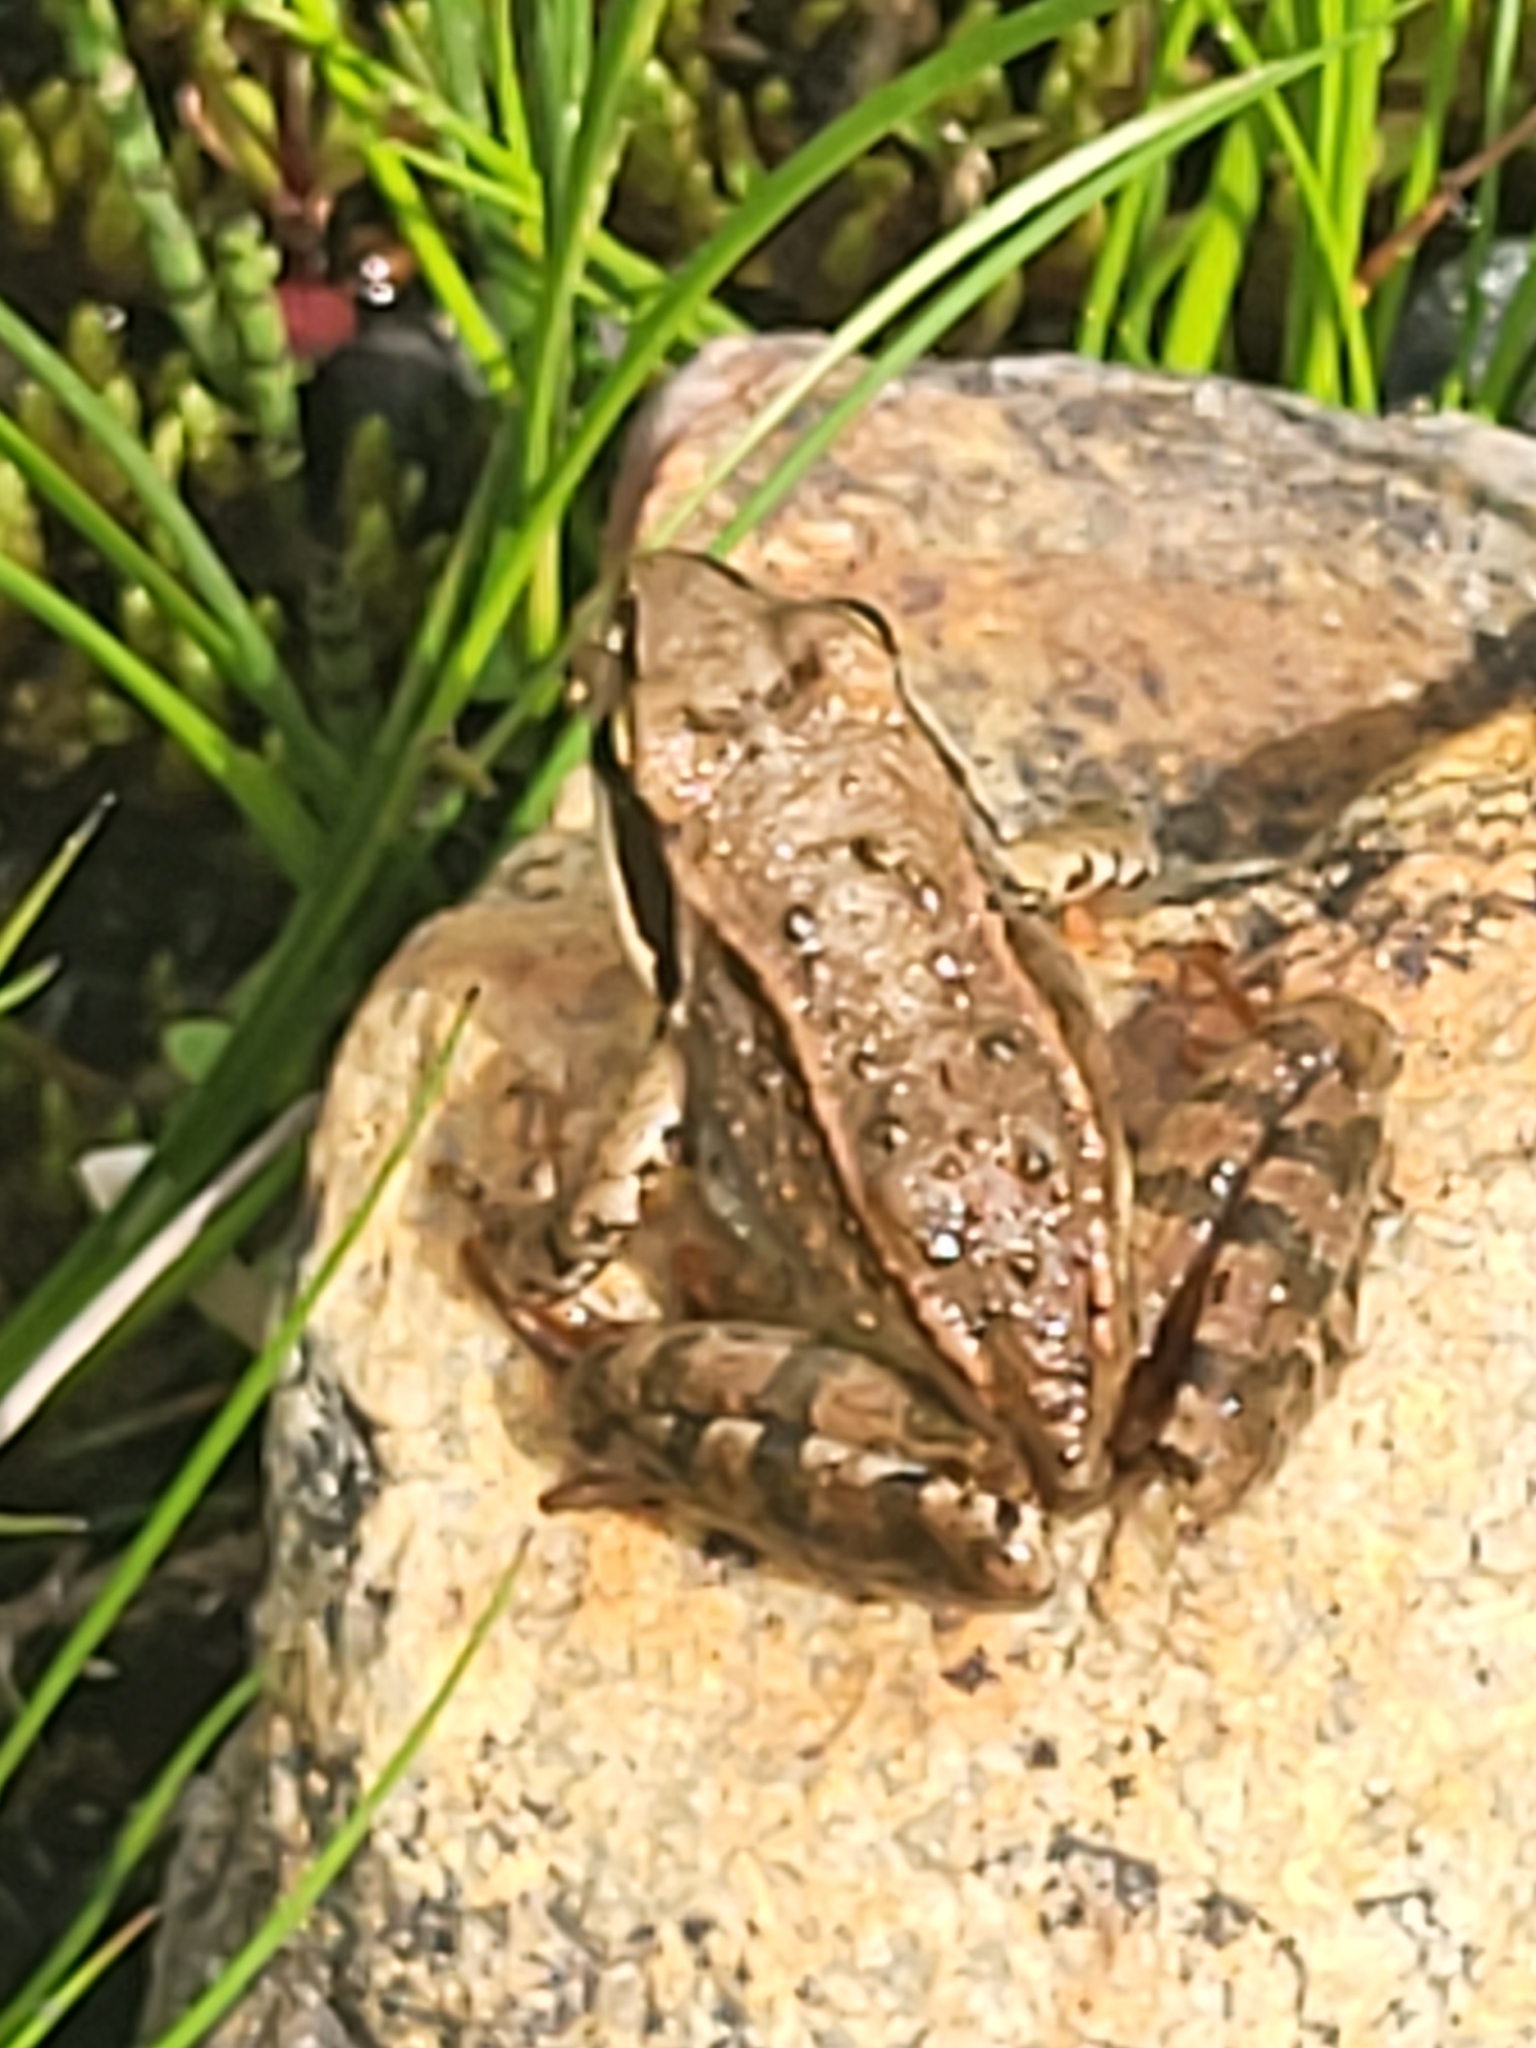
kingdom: Animalia
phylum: Chordata
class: Amphibia
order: Anura
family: Ranidae
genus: Rana
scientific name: Rana macrocnemis
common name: Banded frog
